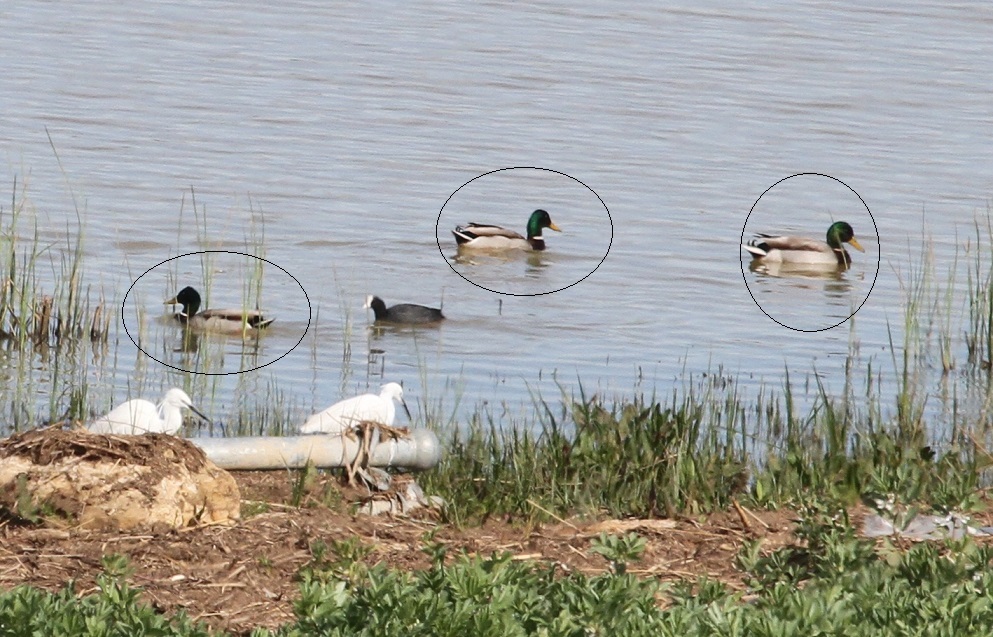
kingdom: Animalia
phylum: Chordata
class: Aves
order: Anseriformes
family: Anatidae
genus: Anas
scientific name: Anas platyrhynchos
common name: Mallard
